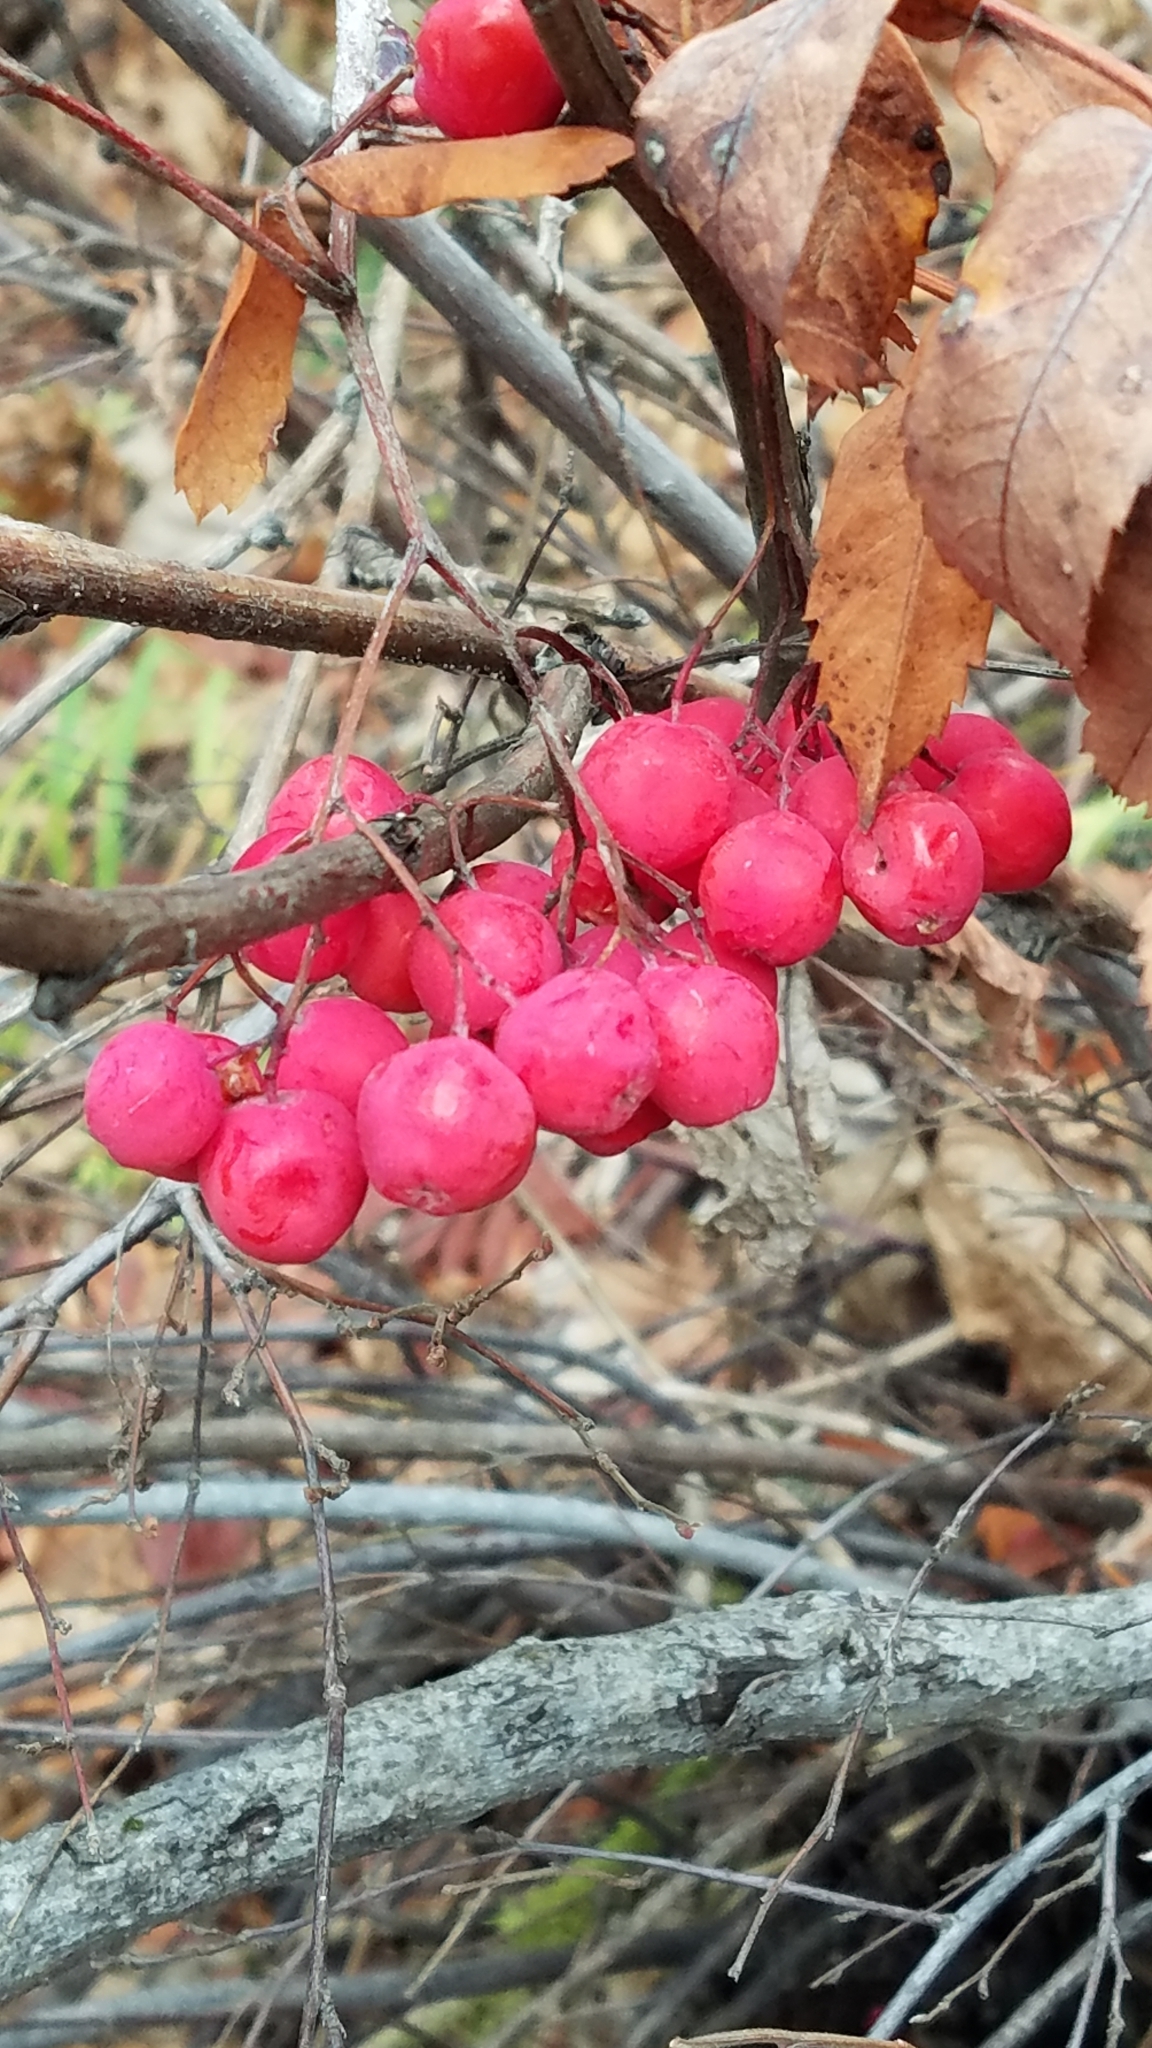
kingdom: Plantae
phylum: Tracheophyta
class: Magnoliopsida
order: Rosales
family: Rosaceae
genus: Sorbus
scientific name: Sorbus aucuparia
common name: Rowan
